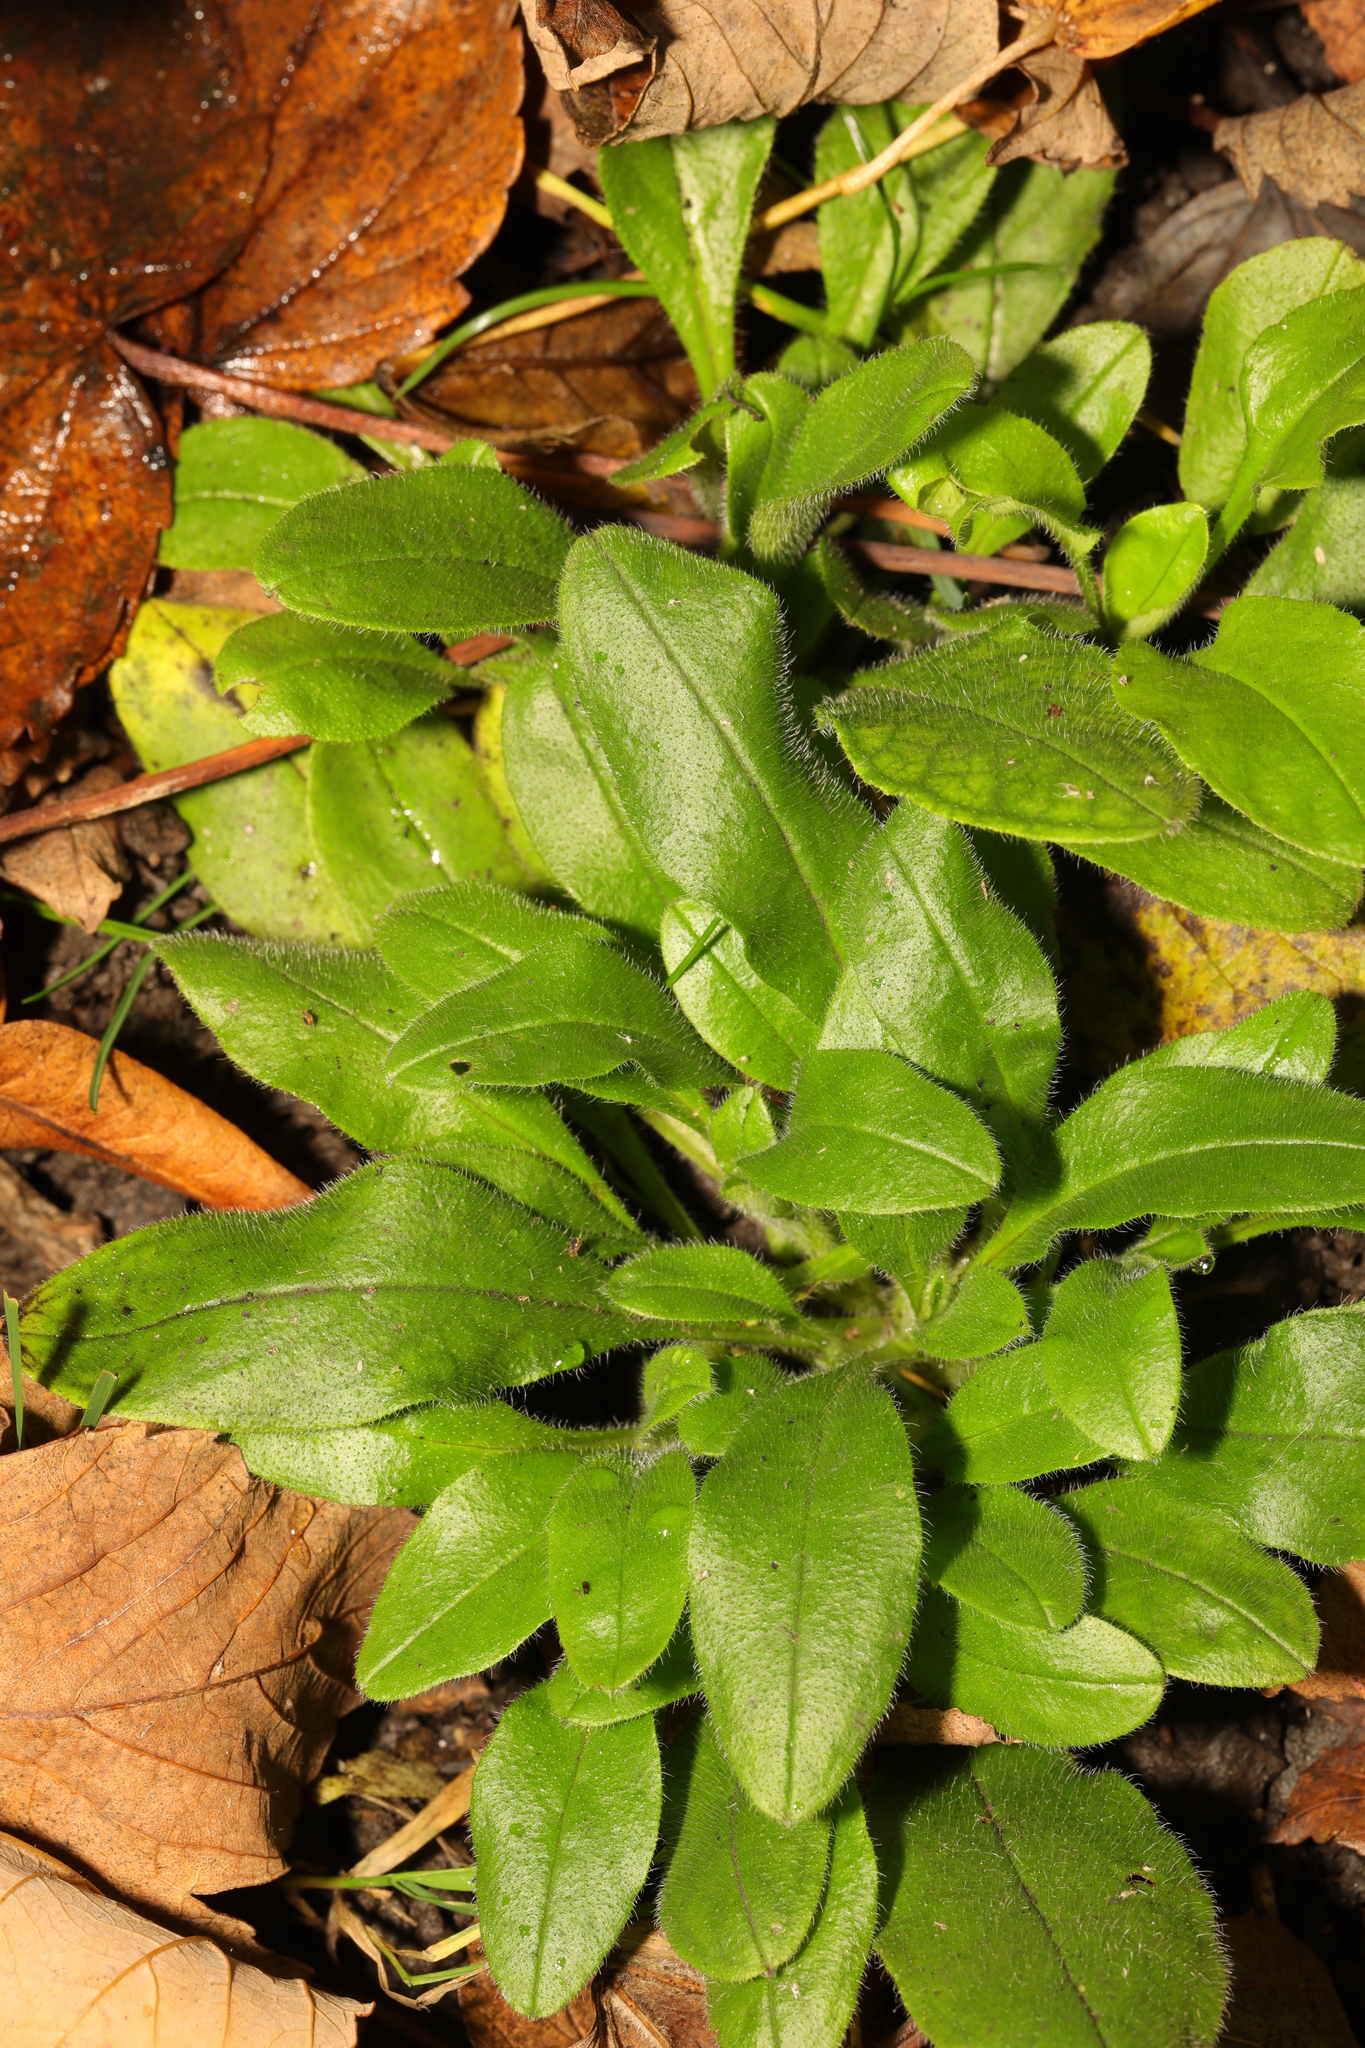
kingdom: Plantae
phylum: Tracheophyta
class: Magnoliopsida
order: Boraginales
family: Boraginaceae
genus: Myosotis
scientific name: Myosotis sylvatica
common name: Wood forget-me-not
